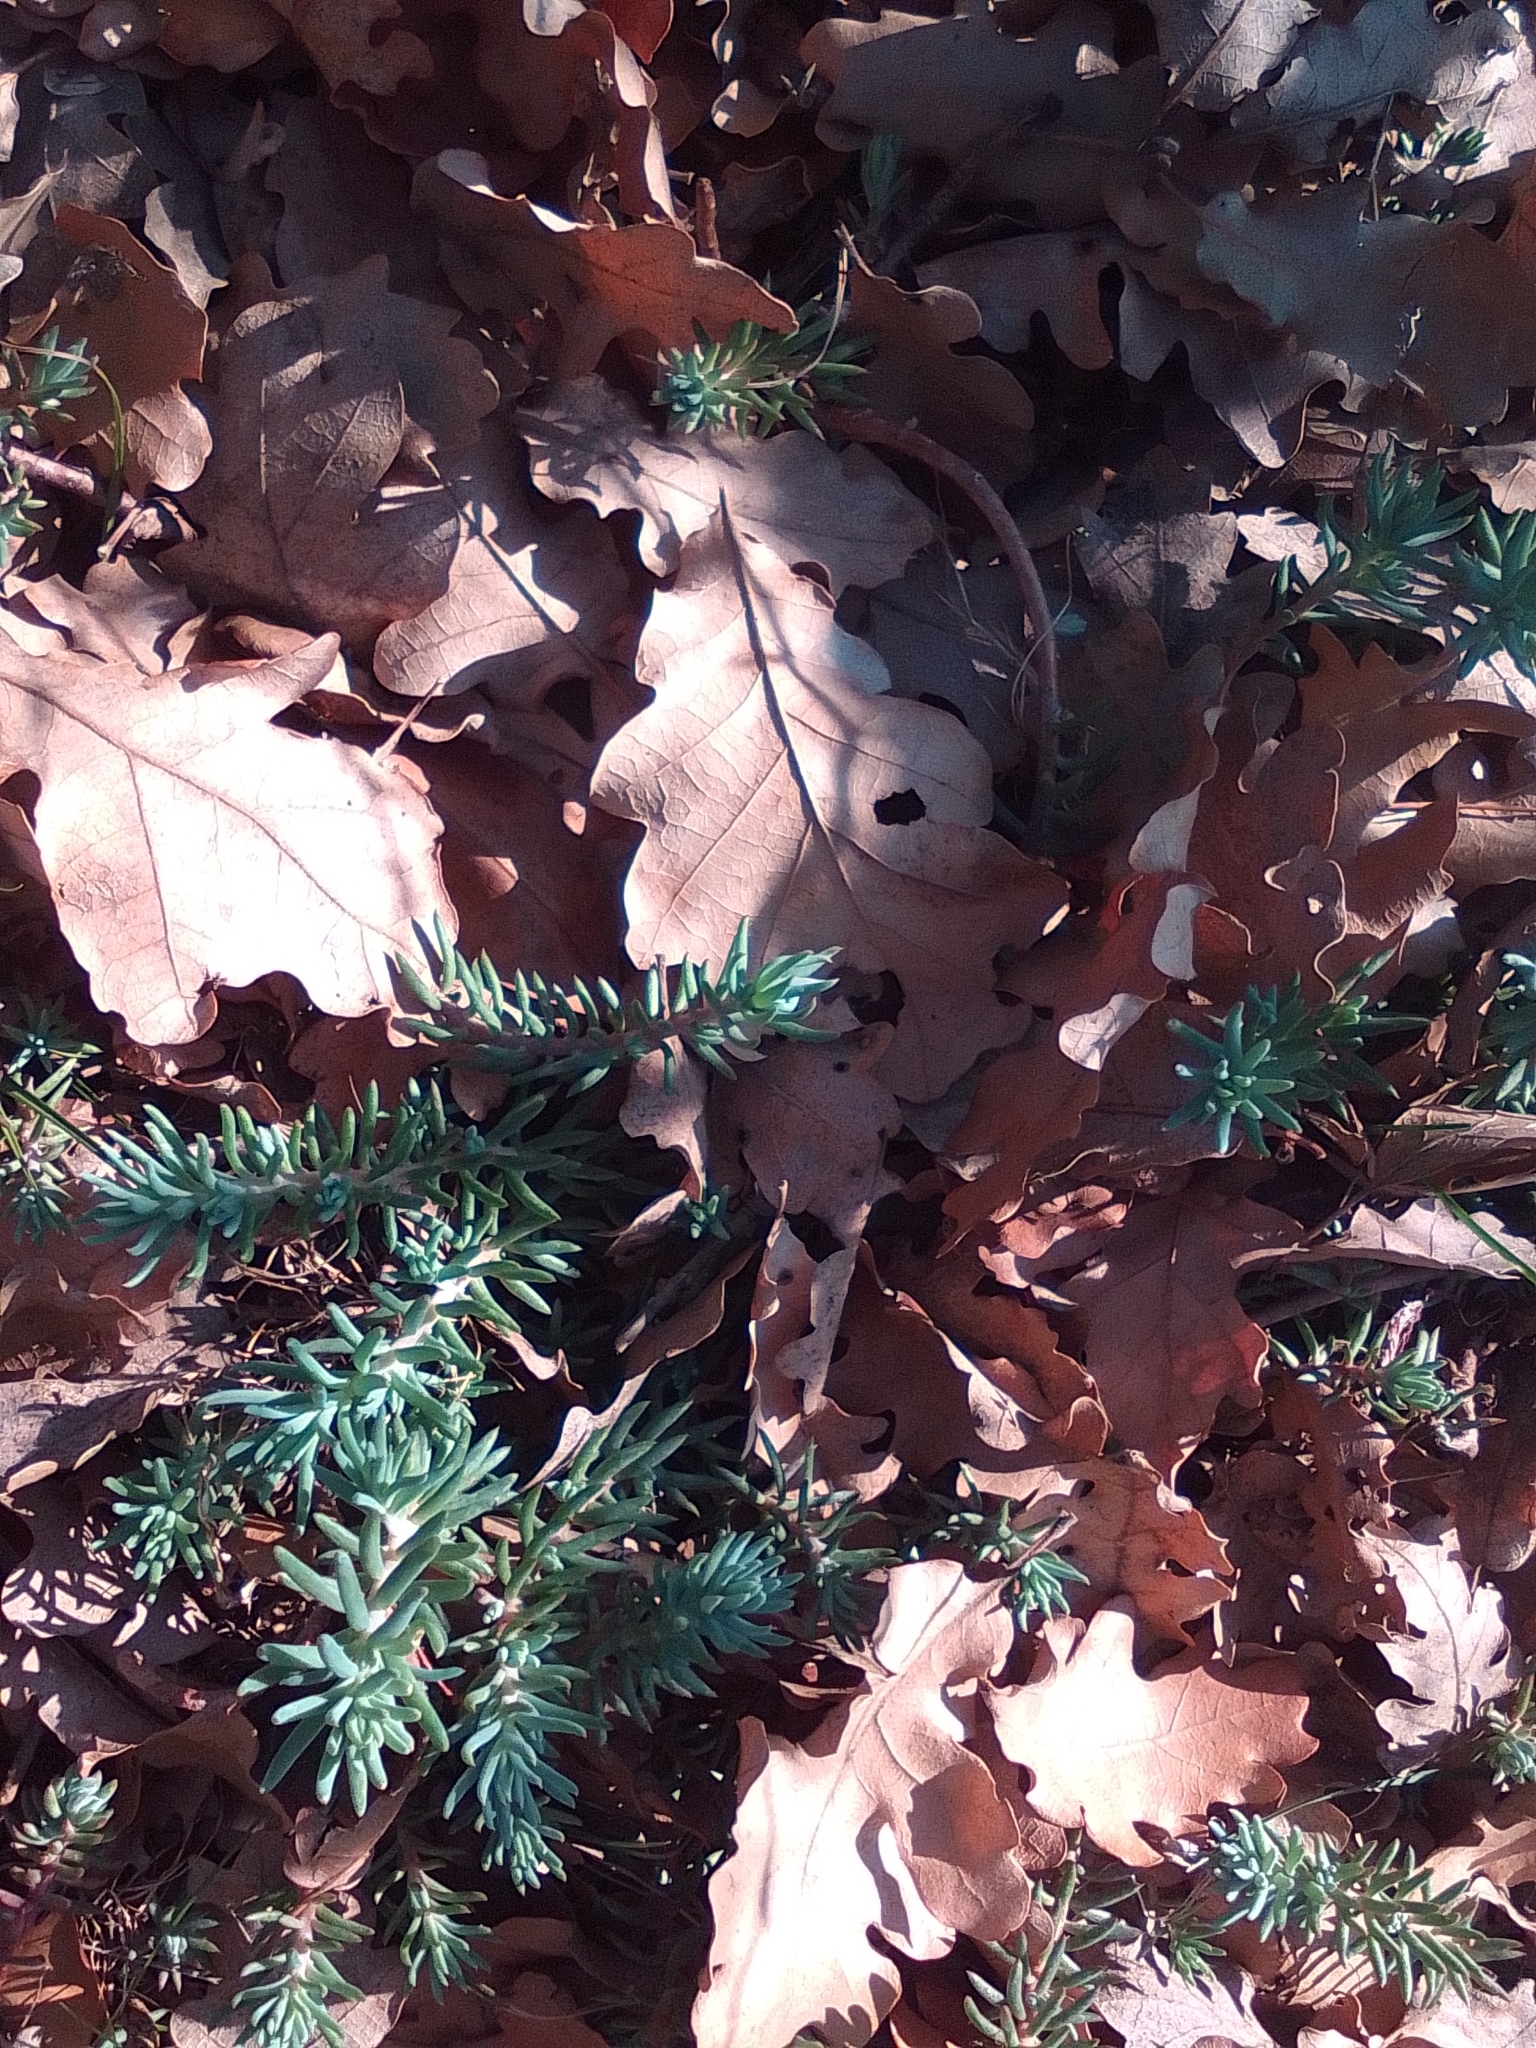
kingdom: Plantae
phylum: Tracheophyta
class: Magnoliopsida
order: Saxifragales
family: Crassulaceae
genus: Petrosedum
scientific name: Petrosedum rupestre
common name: Jenny's stonecrop
